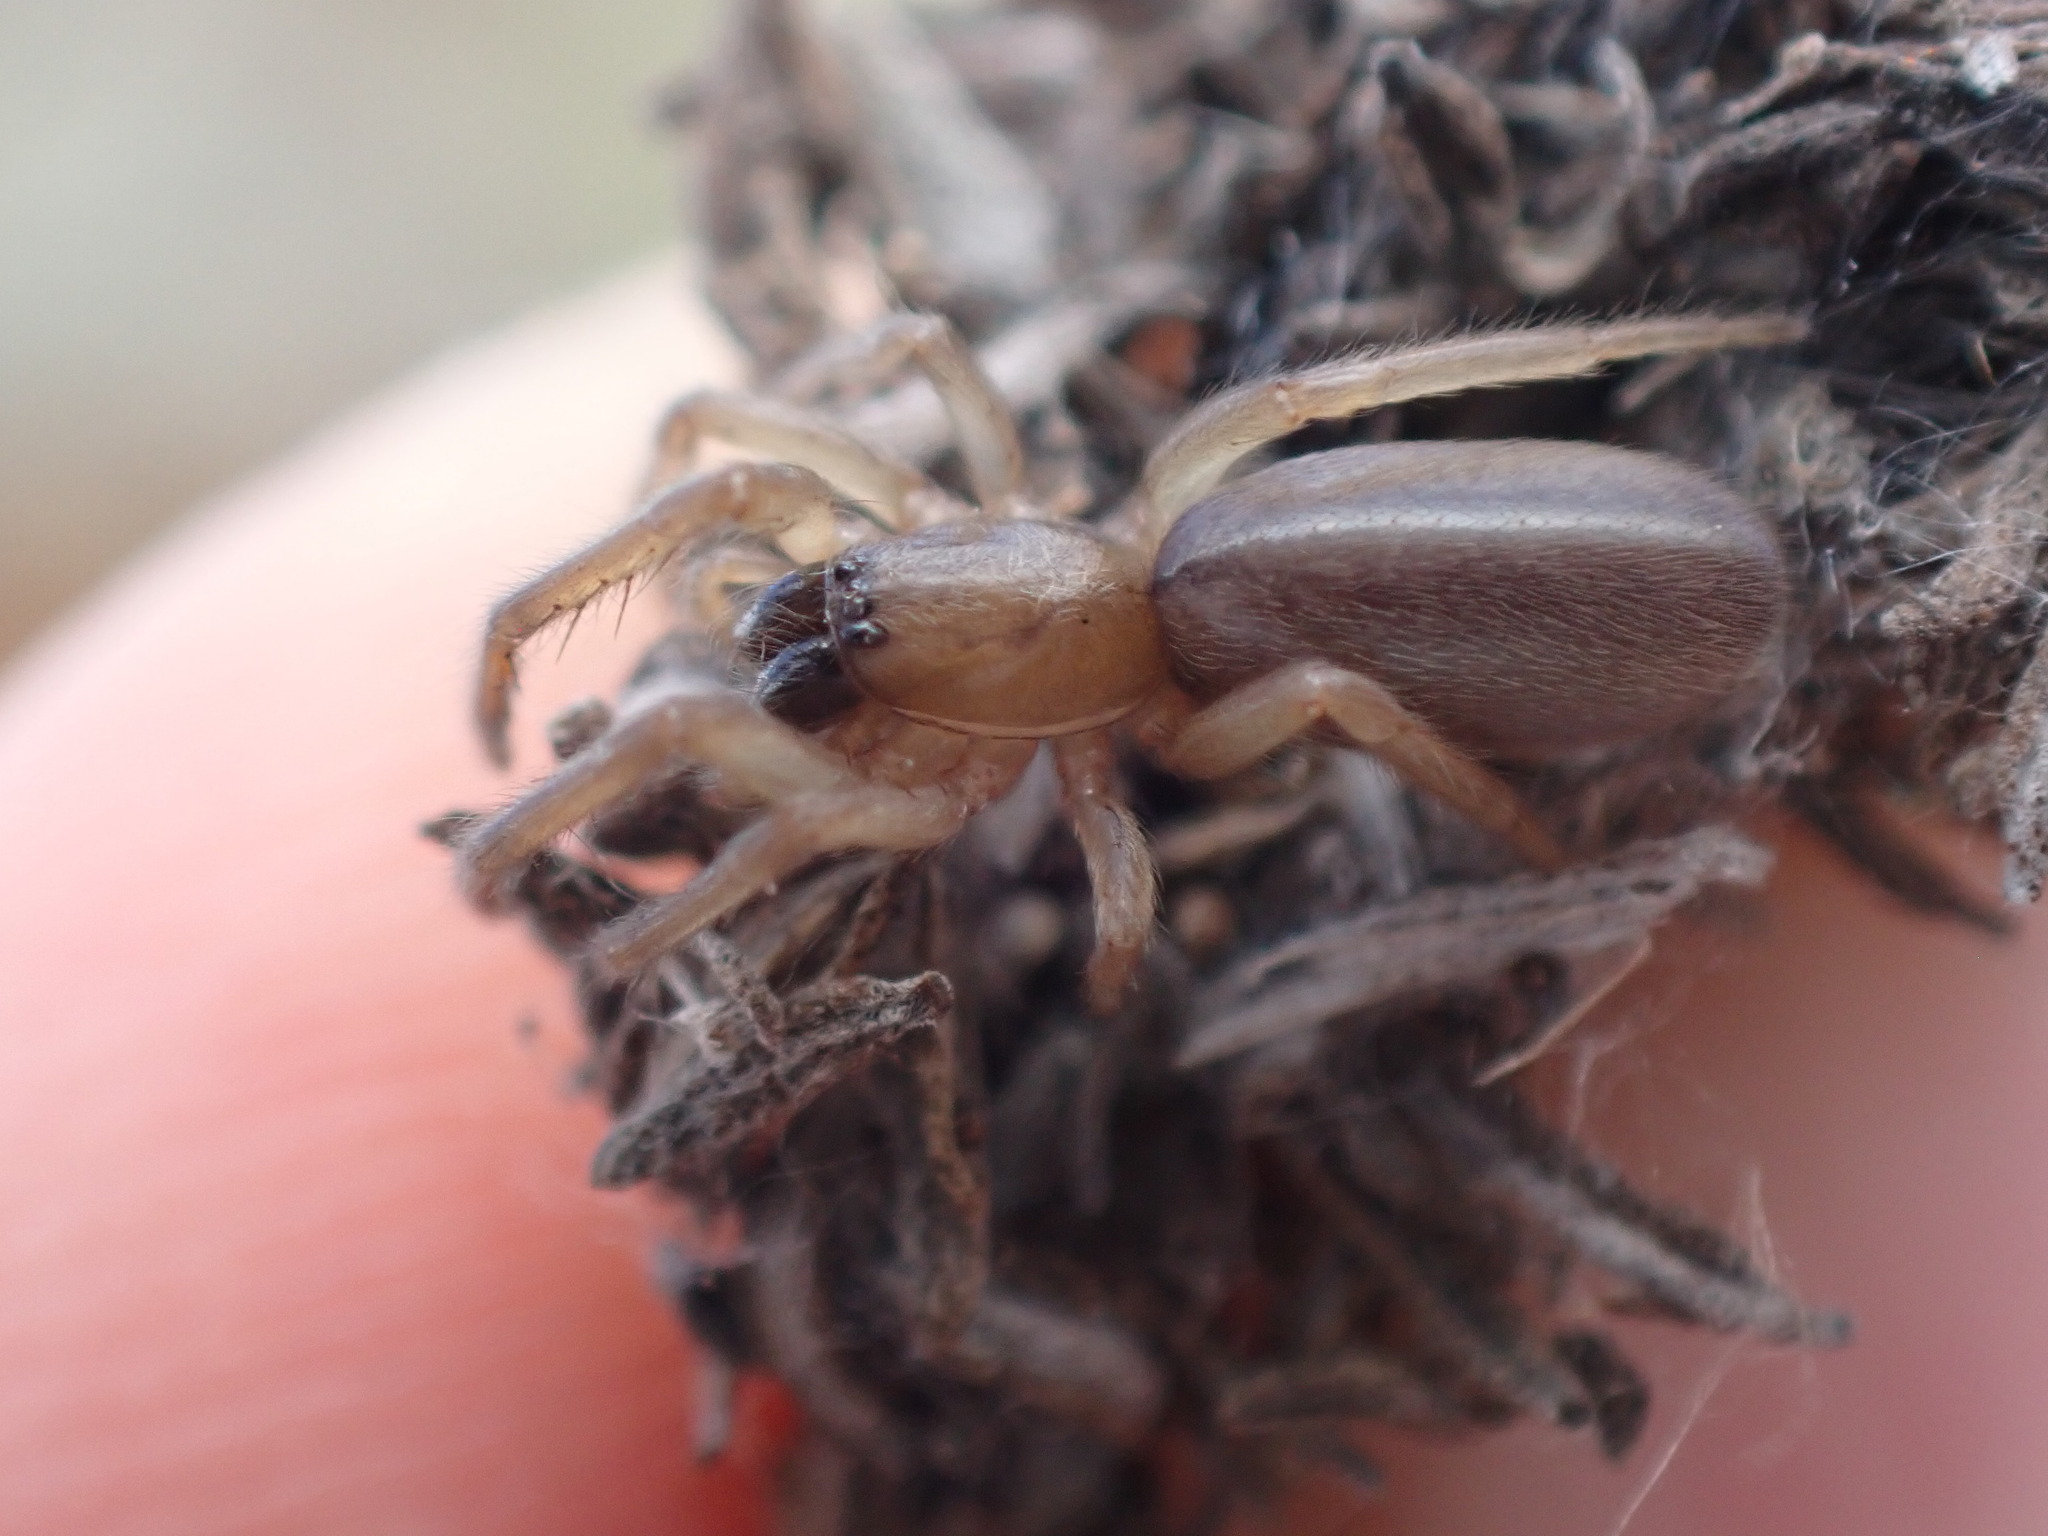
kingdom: Animalia
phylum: Arthropoda
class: Arachnida
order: Araneae
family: Segestriidae
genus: Segestria
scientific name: Segestria fusca
